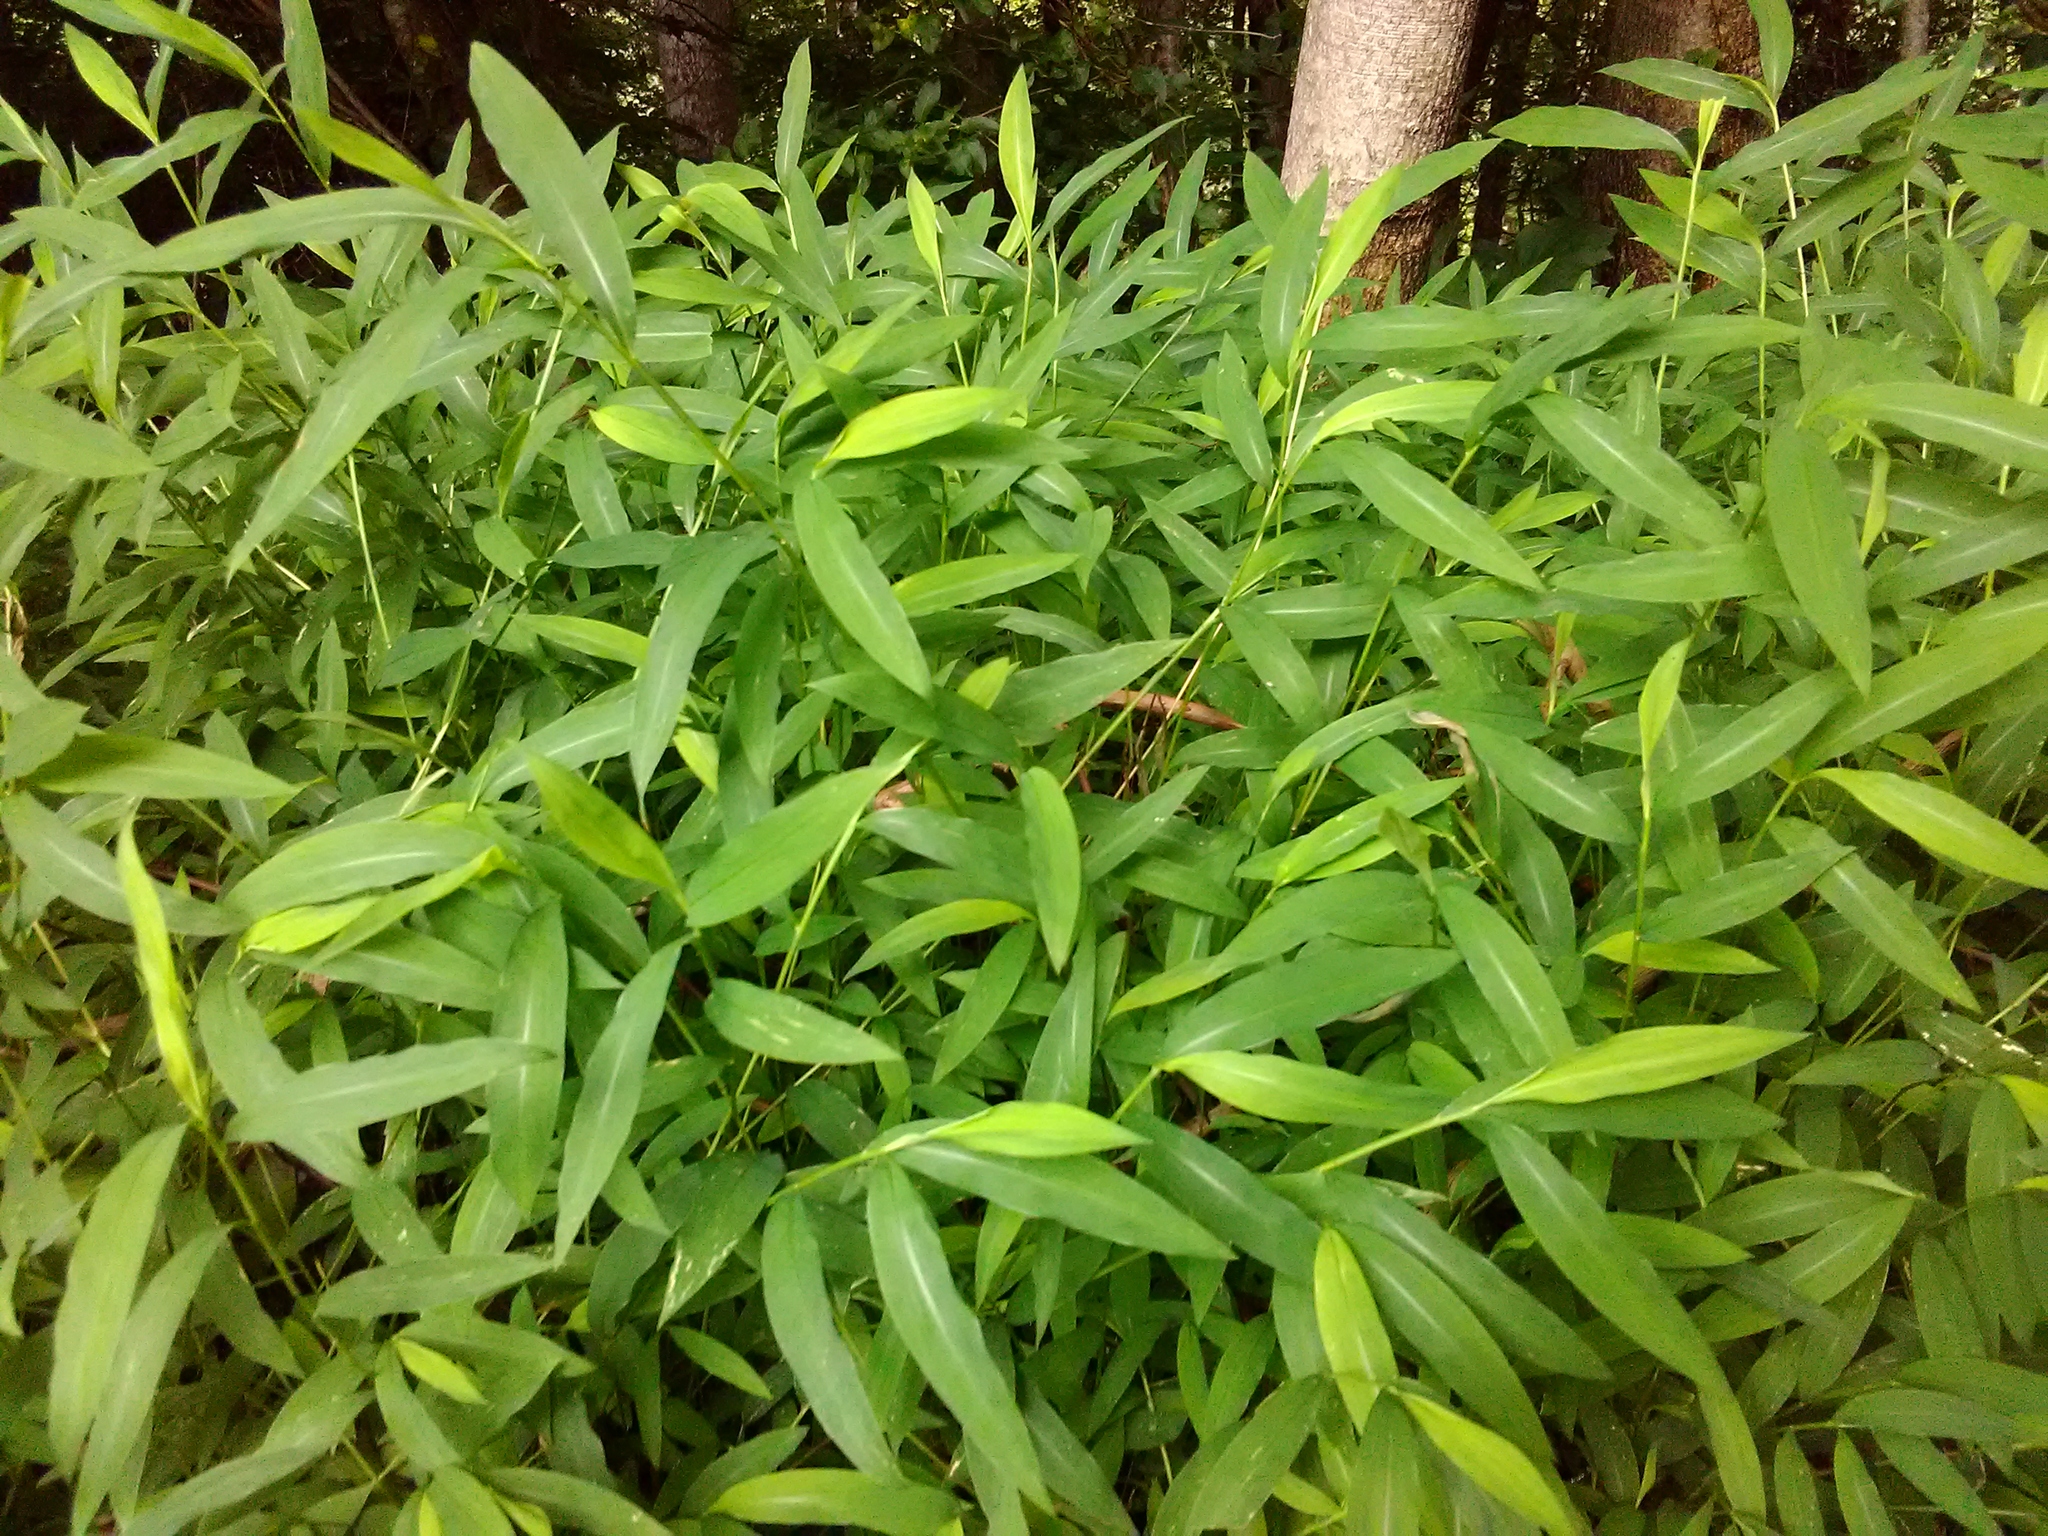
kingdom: Plantae
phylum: Tracheophyta
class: Liliopsida
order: Poales
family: Poaceae
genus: Microstegium
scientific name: Microstegium vimineum
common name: Japanese stiltgrass
